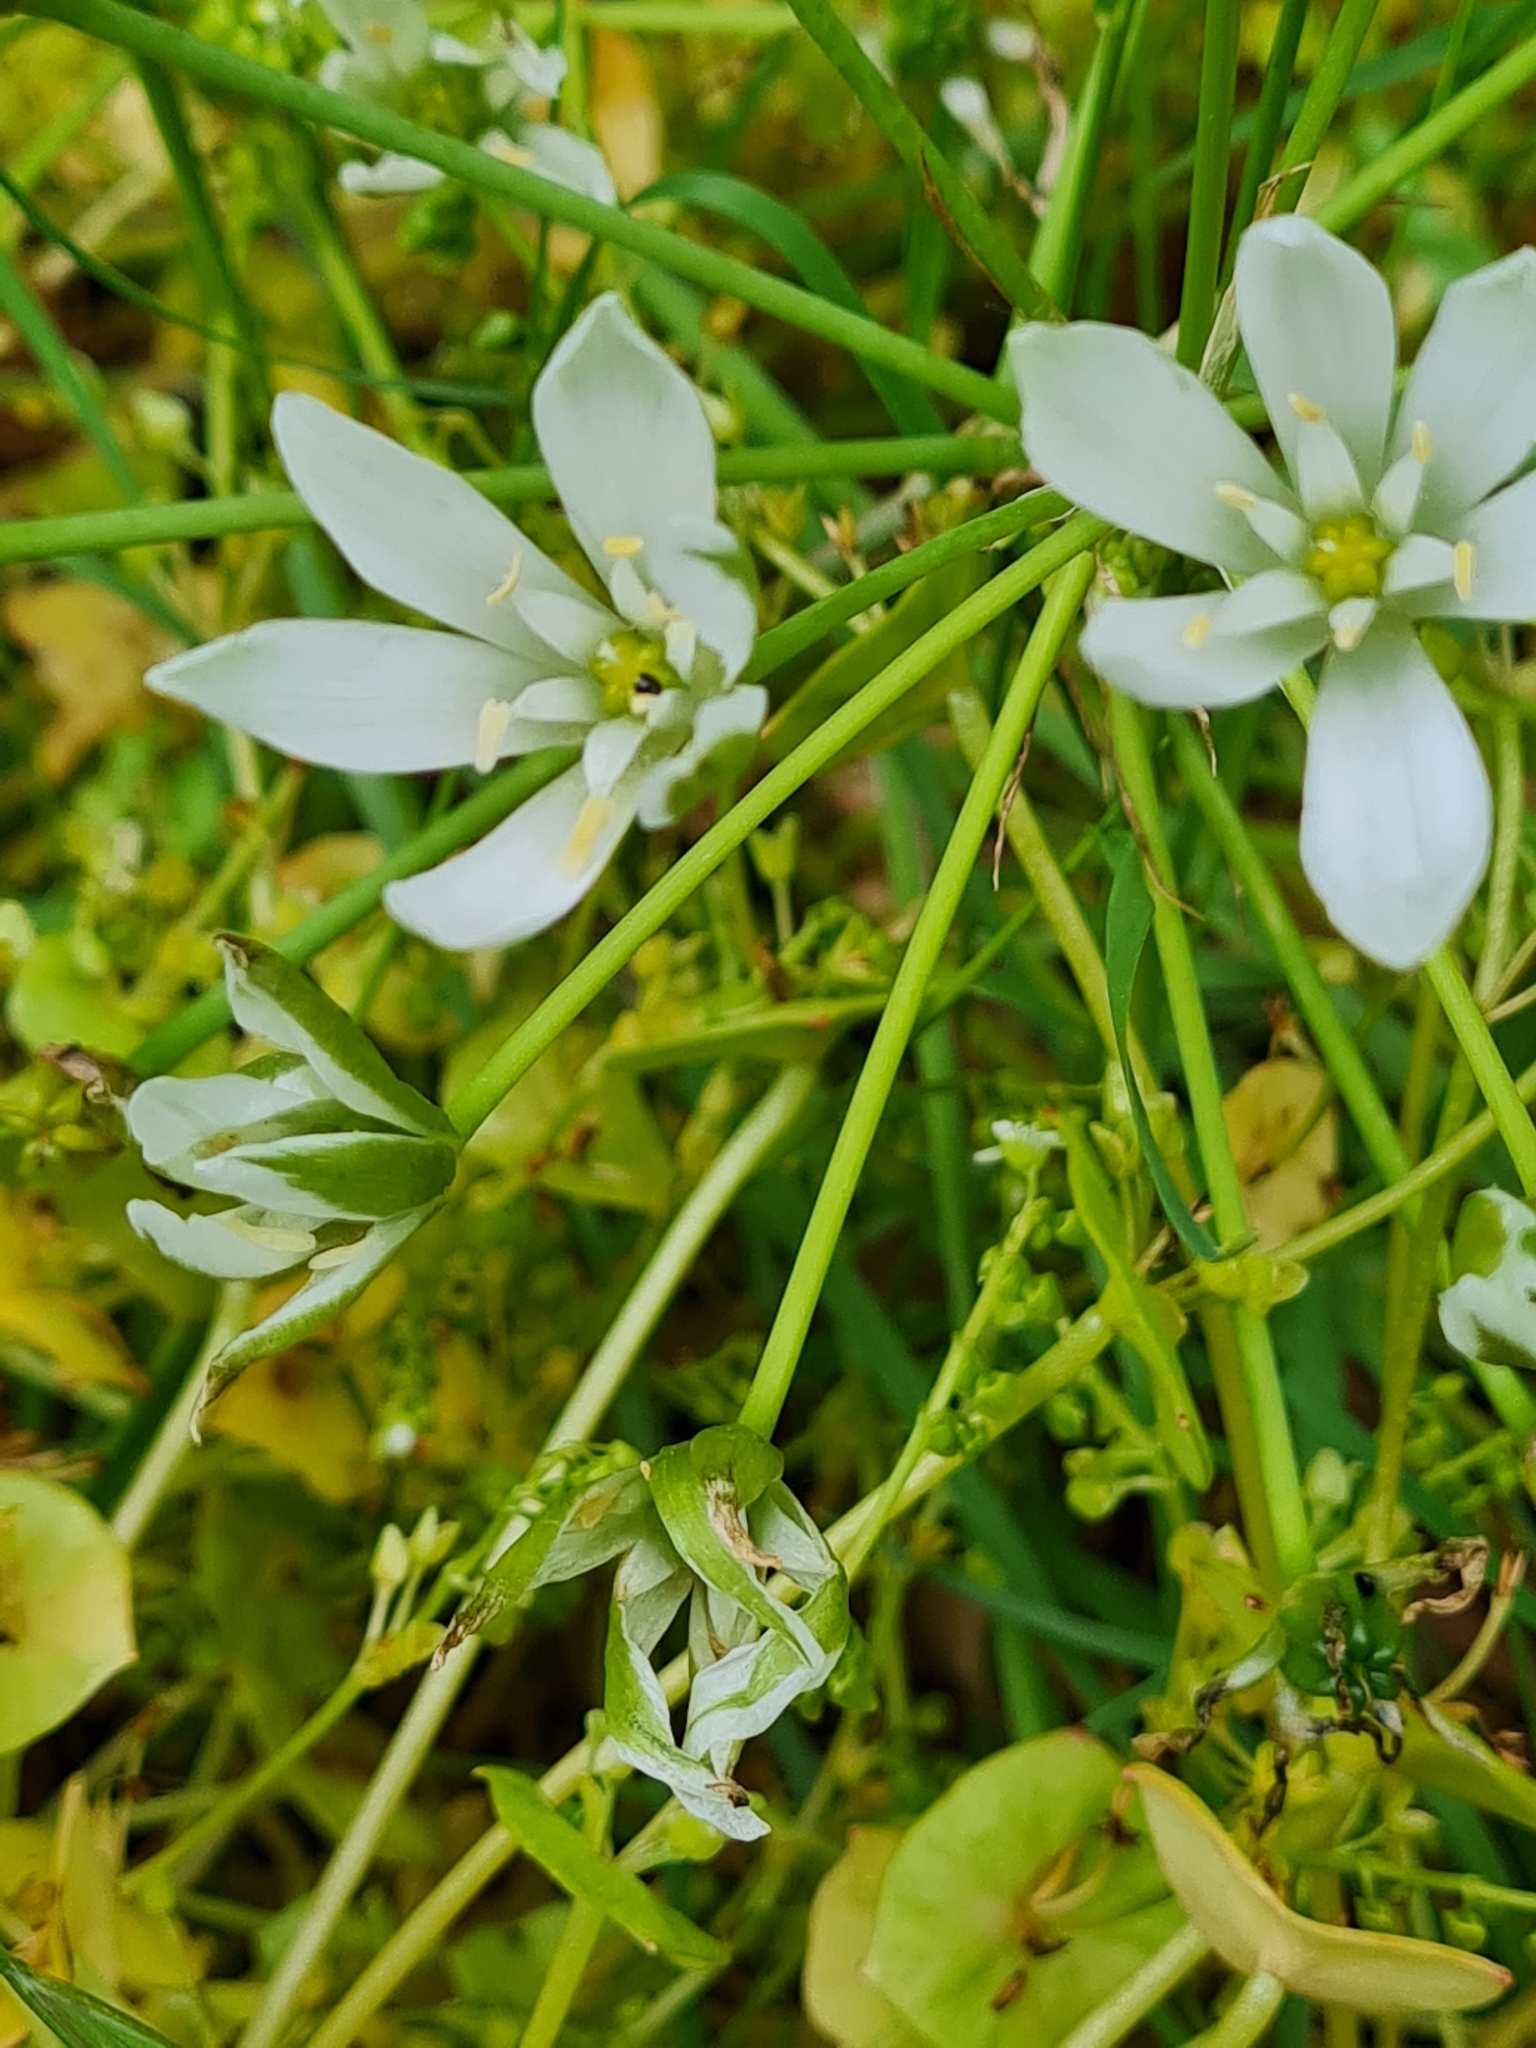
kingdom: Plantae
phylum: Tracheophyta
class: Liliopsida
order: Asparagales
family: Asparagaceae
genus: Ornithogalum
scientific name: Ornithogalum umbellatum
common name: Garden star-of-bethlehem
